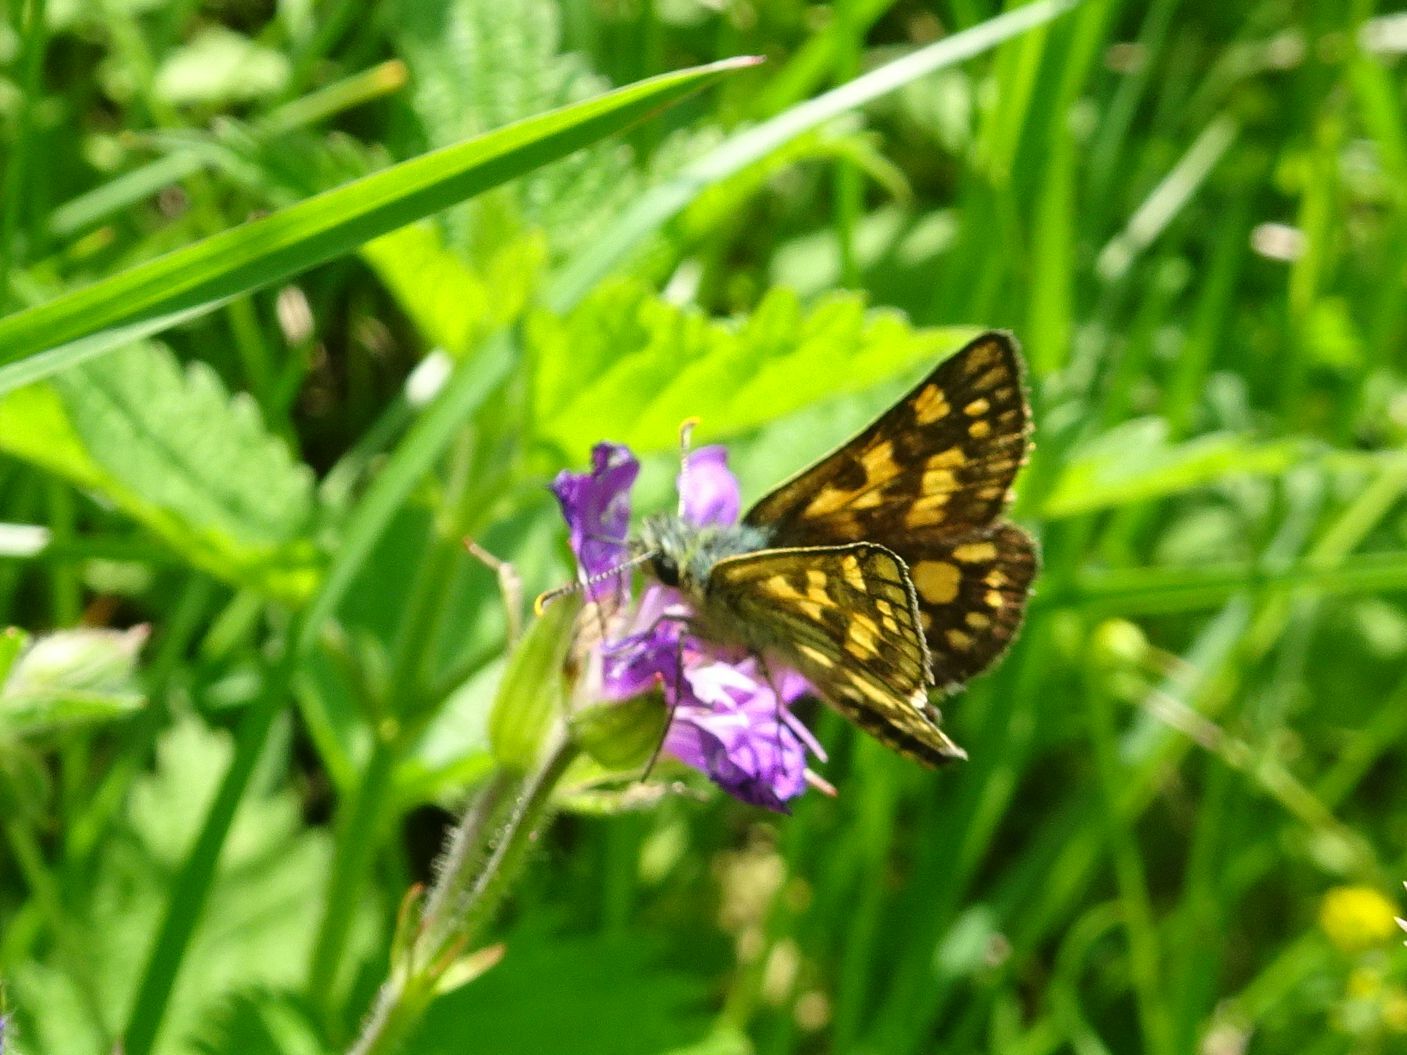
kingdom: Animalia
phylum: Arthropoda
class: Insecta
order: Lepidoptera
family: Hesperiidae
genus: Carterocephalus
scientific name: Carterocephalus palaemon
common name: Chequered skipper
